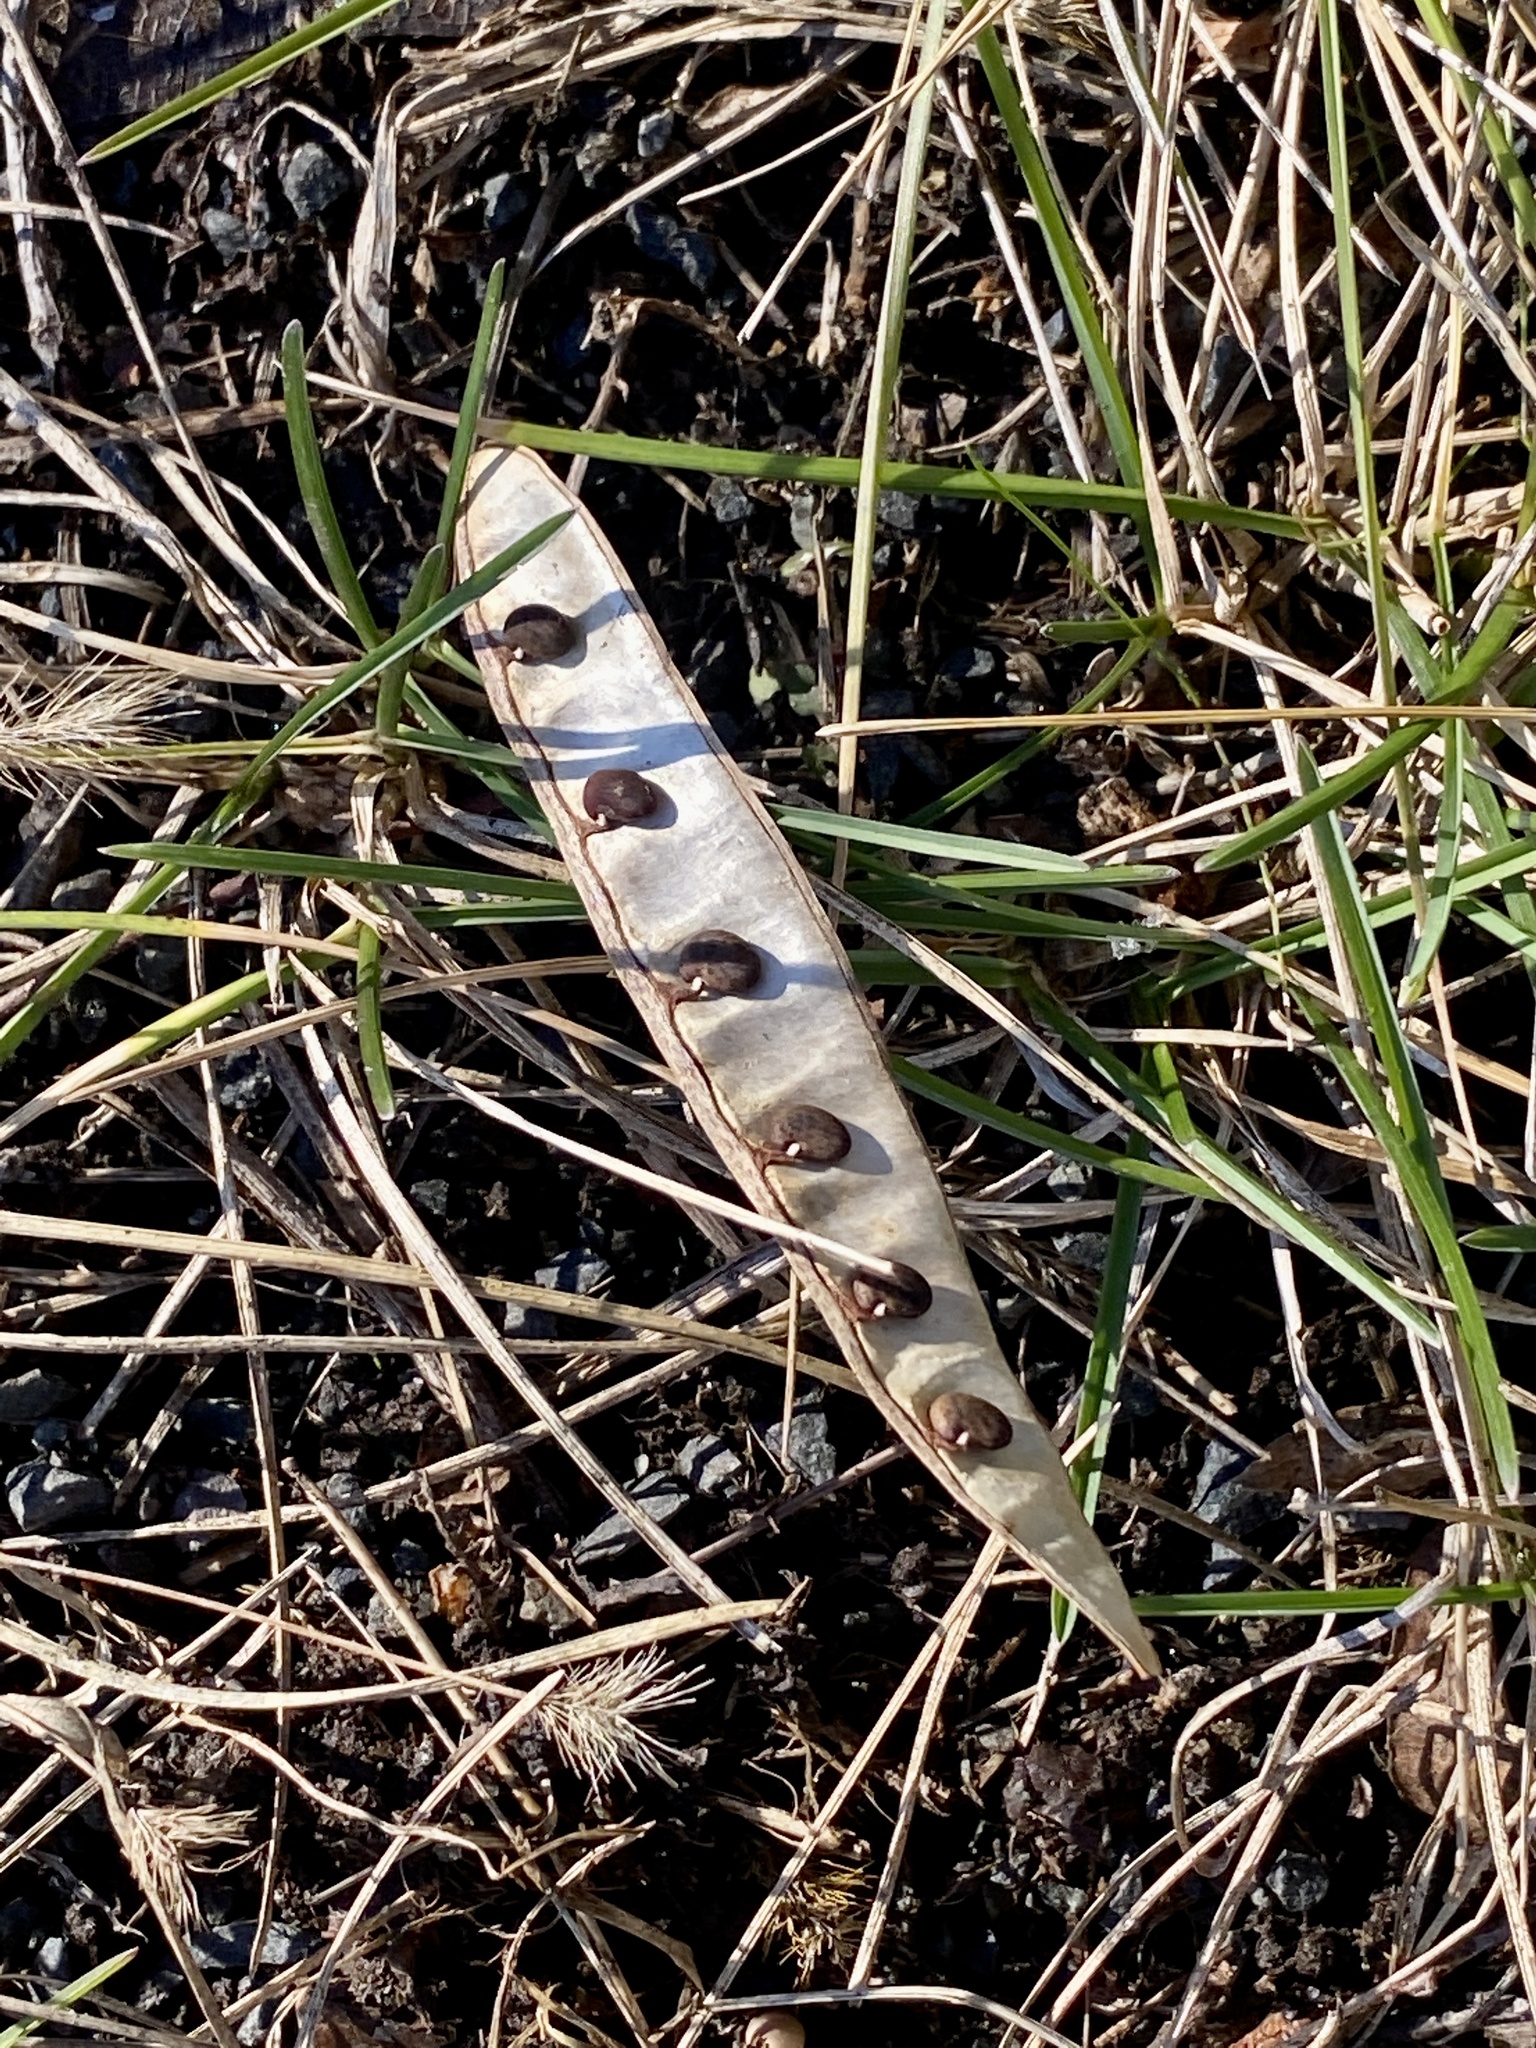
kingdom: Plantae
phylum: Tracheophyta
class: Magnoliopsida
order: Fabales
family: Fabaceae
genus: Robinia
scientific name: Robinia pseudoacacia
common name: Black locust
